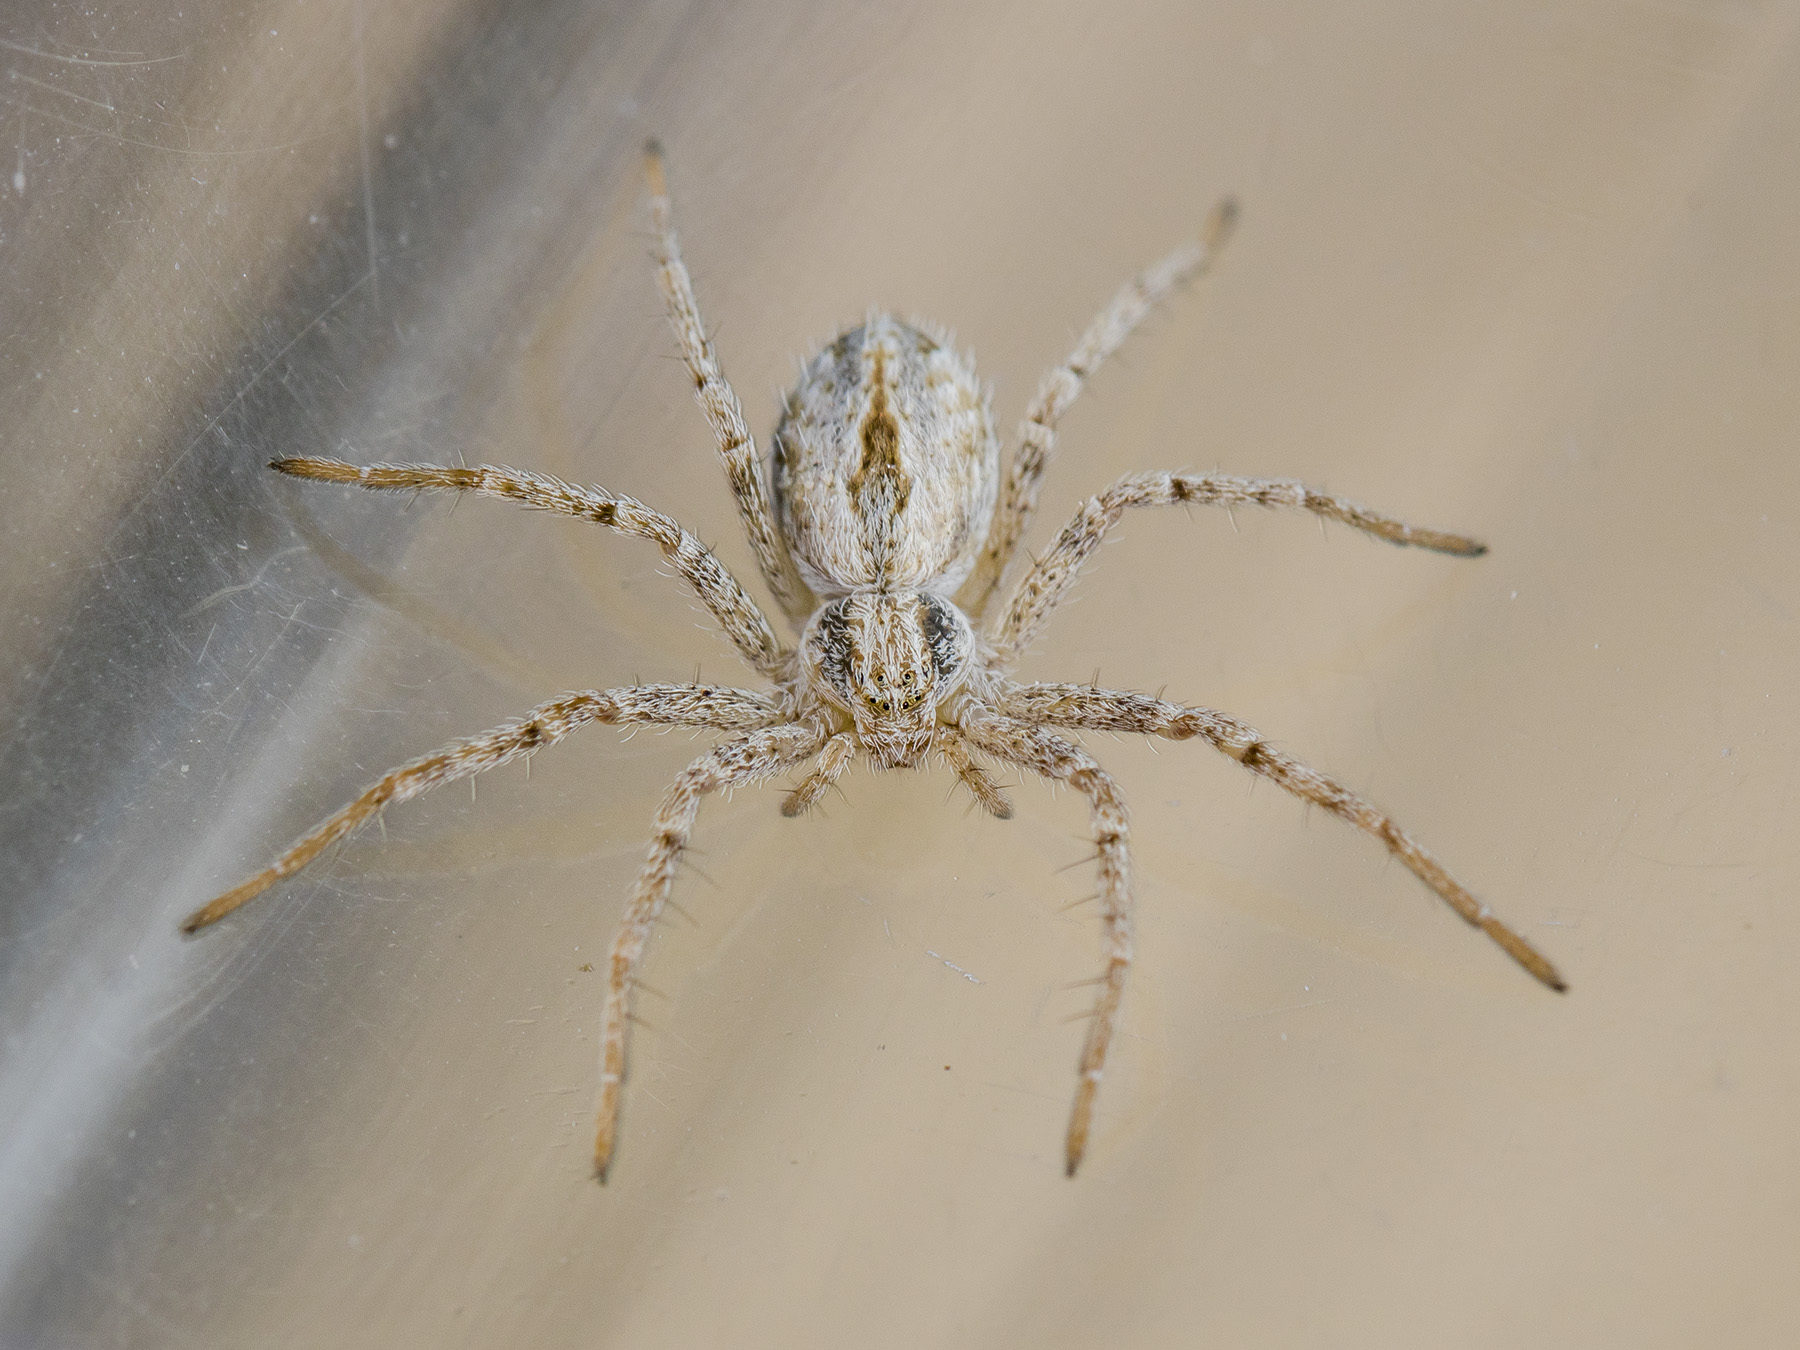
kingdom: Animalia
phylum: Arthropoda
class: Arachnida
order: Araneae
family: Philodromidae
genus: Thanatus
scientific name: Thanatus fabricii
